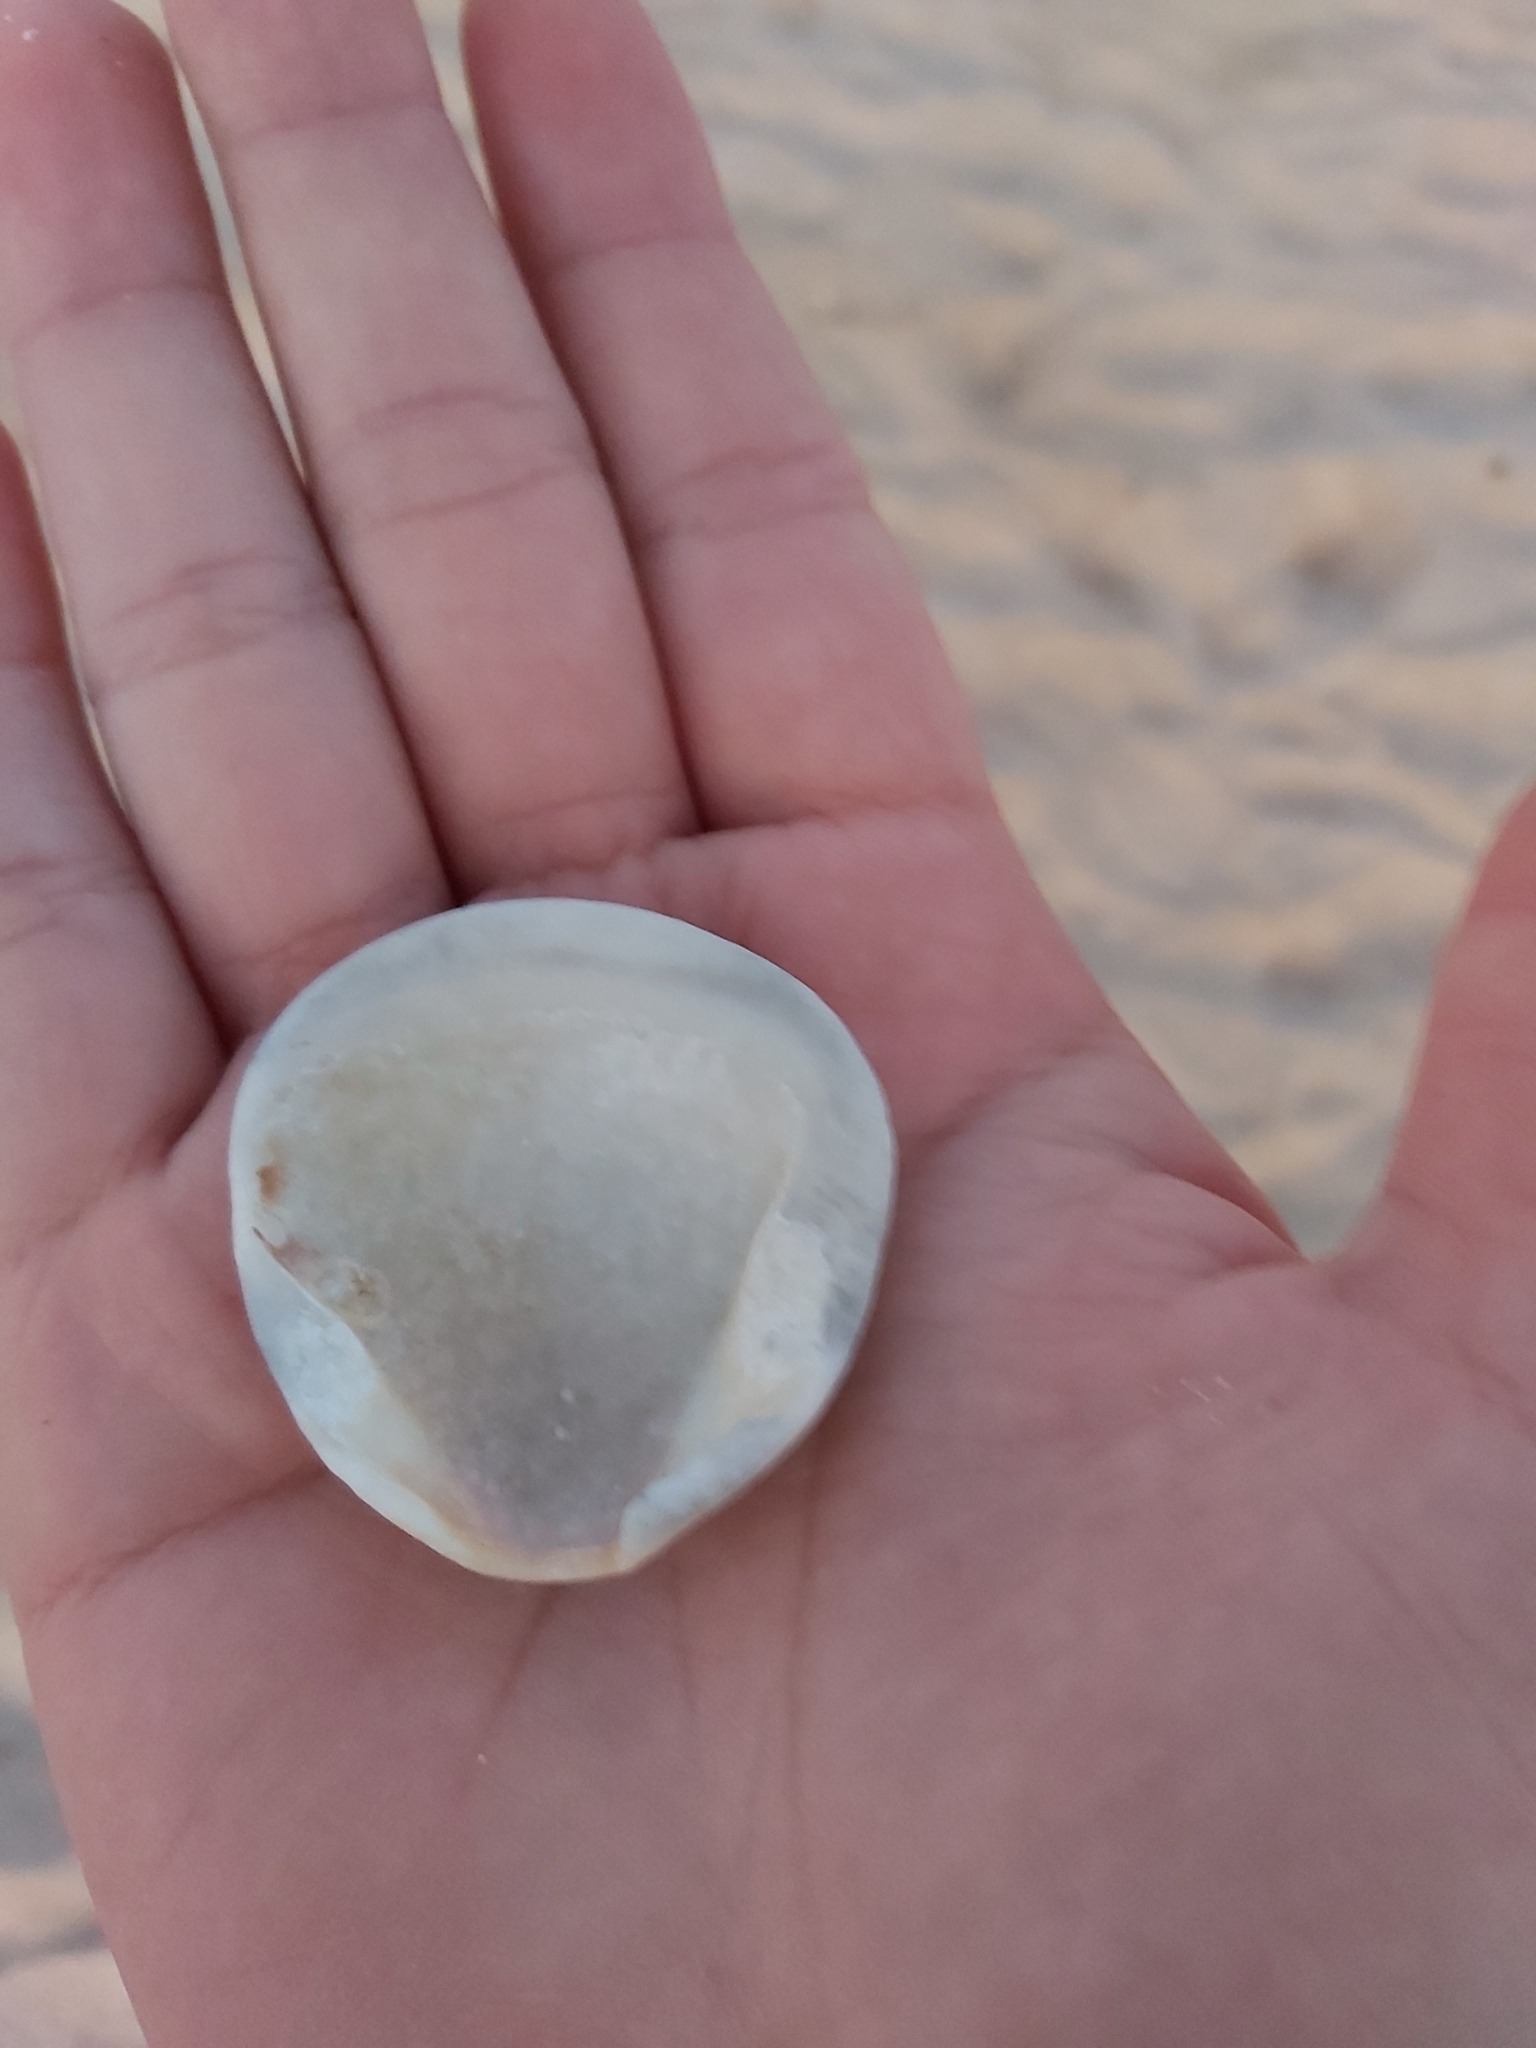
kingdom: Animalia
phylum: Mollusca
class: Bivalvia
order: Arcida
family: Glycymerididae
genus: Glycymeris
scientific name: Glycymeris grayana
